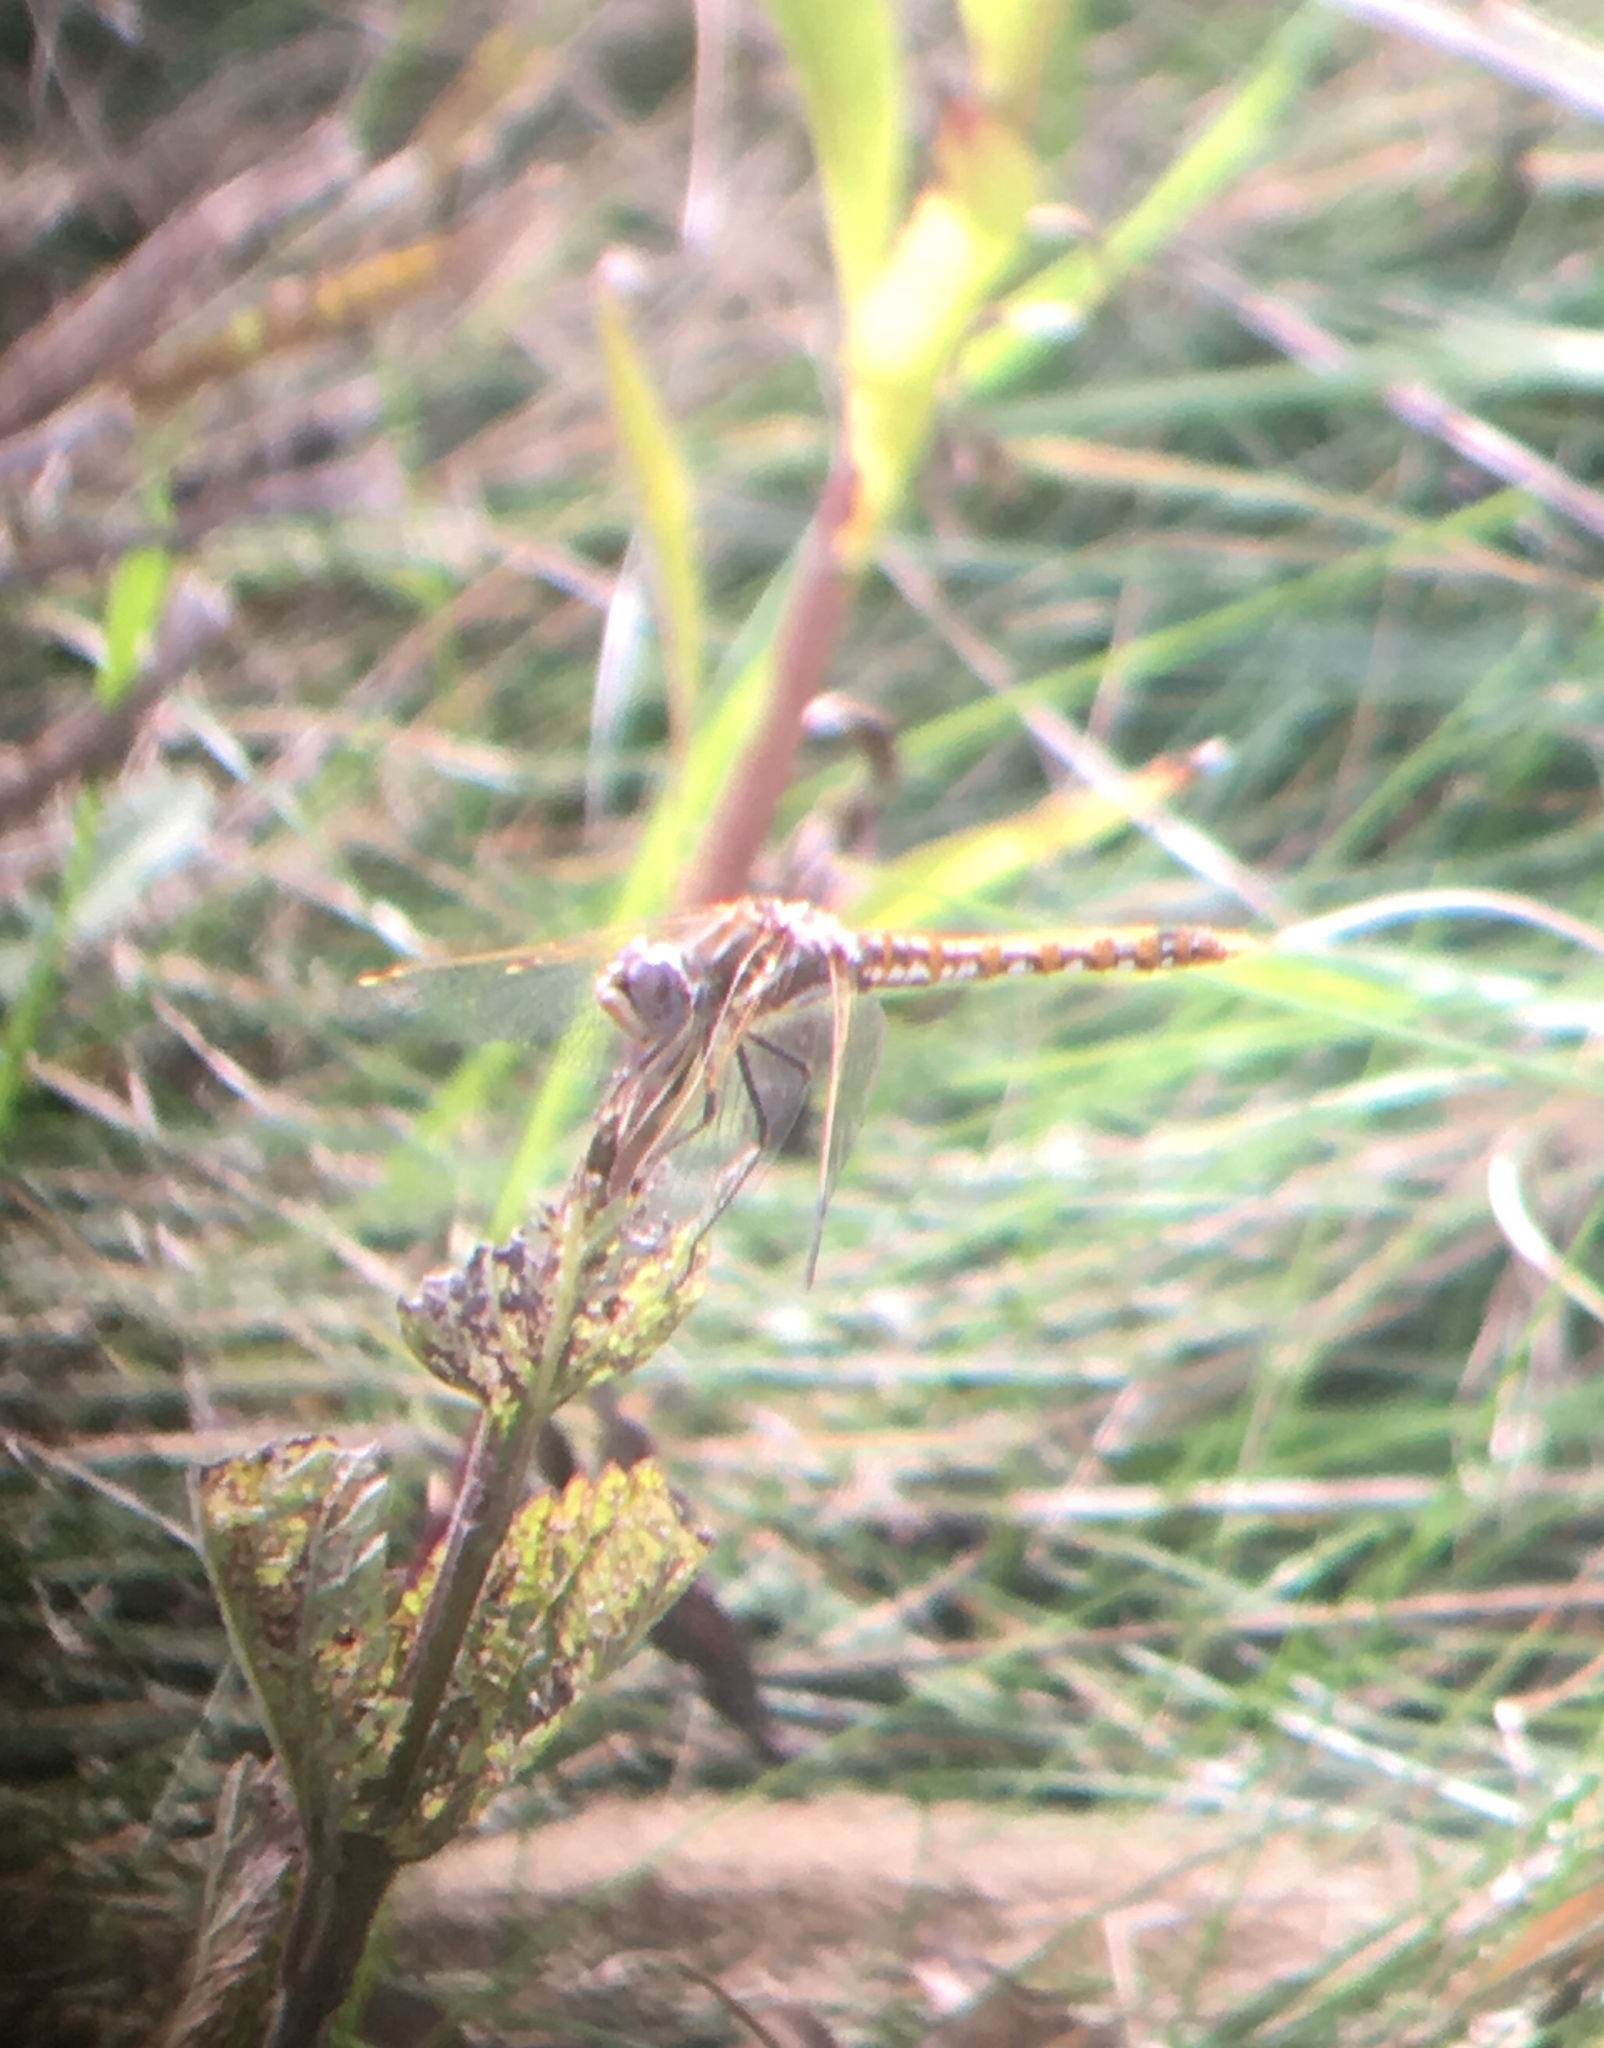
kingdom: Animalia
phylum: Arthropoda
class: Insecta
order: Odonata
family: Libellulidae
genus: Sympetrum
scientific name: Sympetrum corruptum
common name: Variegated meadowhawk
